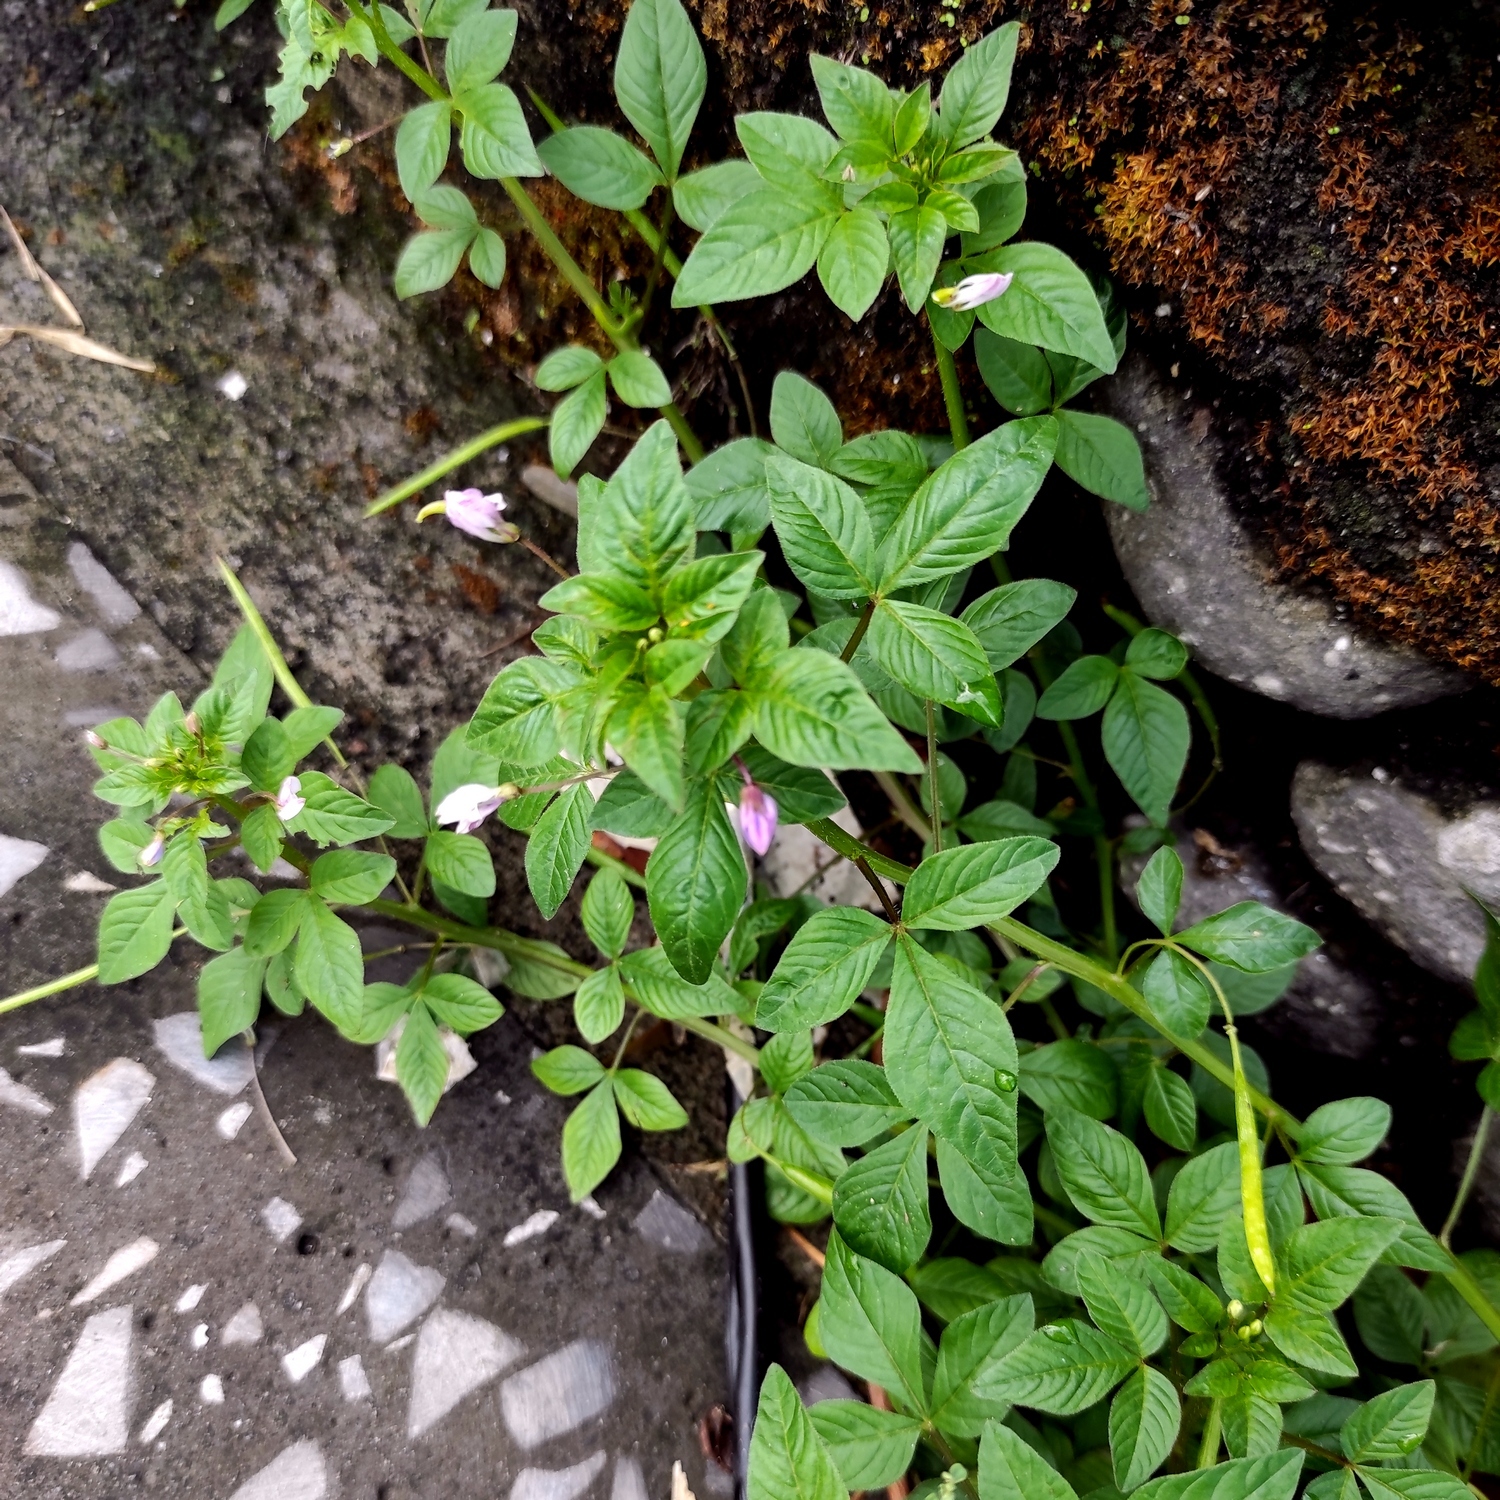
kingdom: Plantae
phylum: Tracheophyta
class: Magnoliopsida
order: Brassicales
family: Cleomaceae
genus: Sieruela
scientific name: Sieruela rutidosperma
